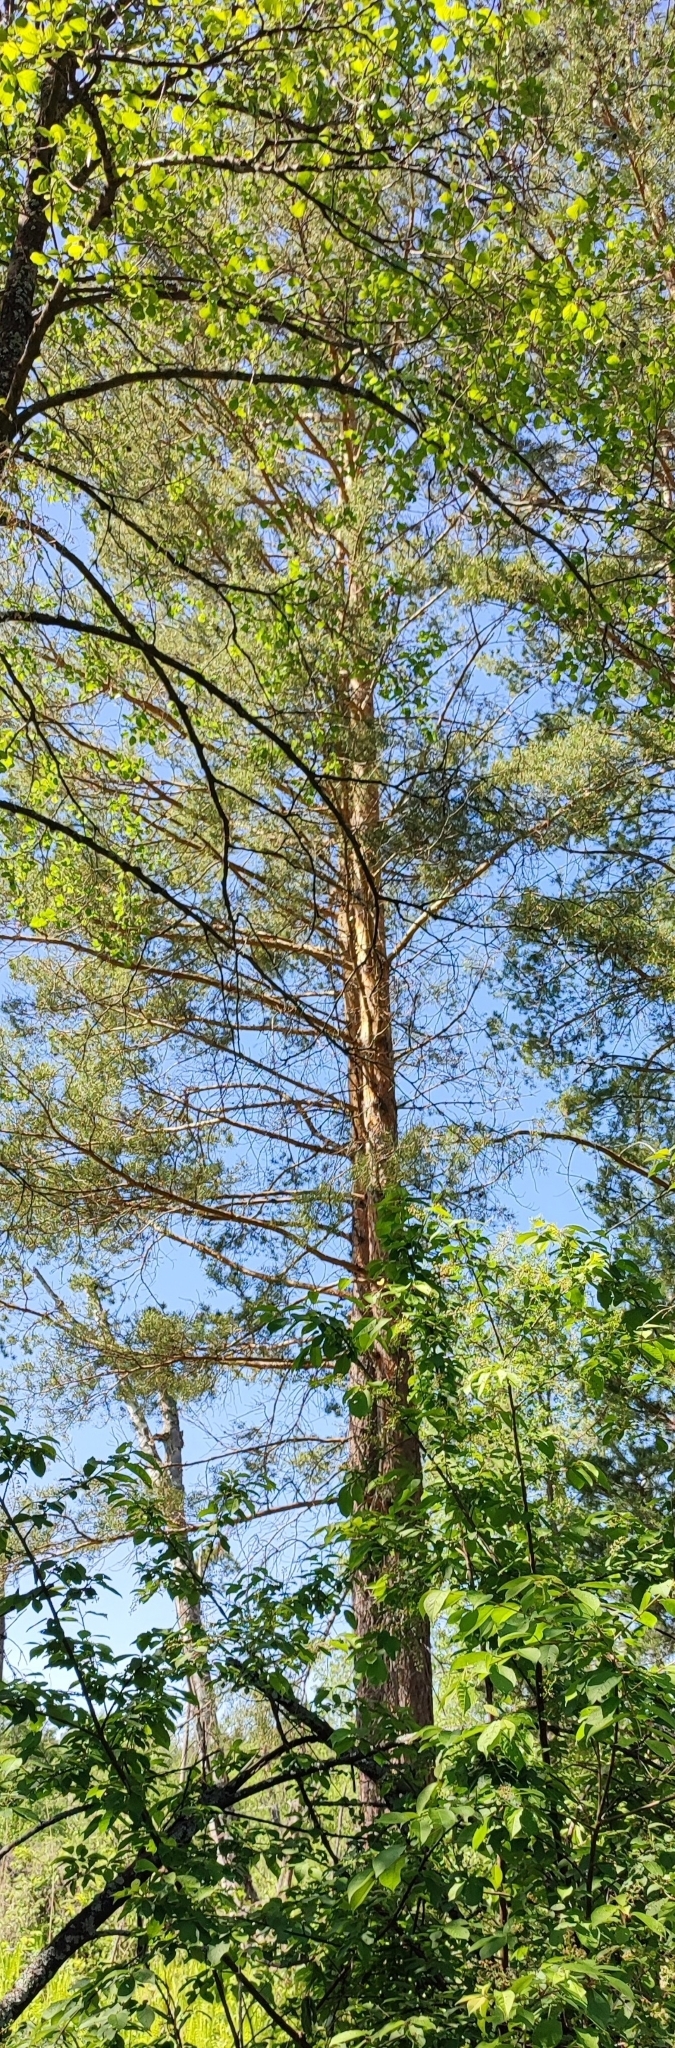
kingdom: Plantae
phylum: Tracheophyta
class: Pinopsida
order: Pinales
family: Pinaceae
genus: Pinus
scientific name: Pinus sylvestris
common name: Scots pine
